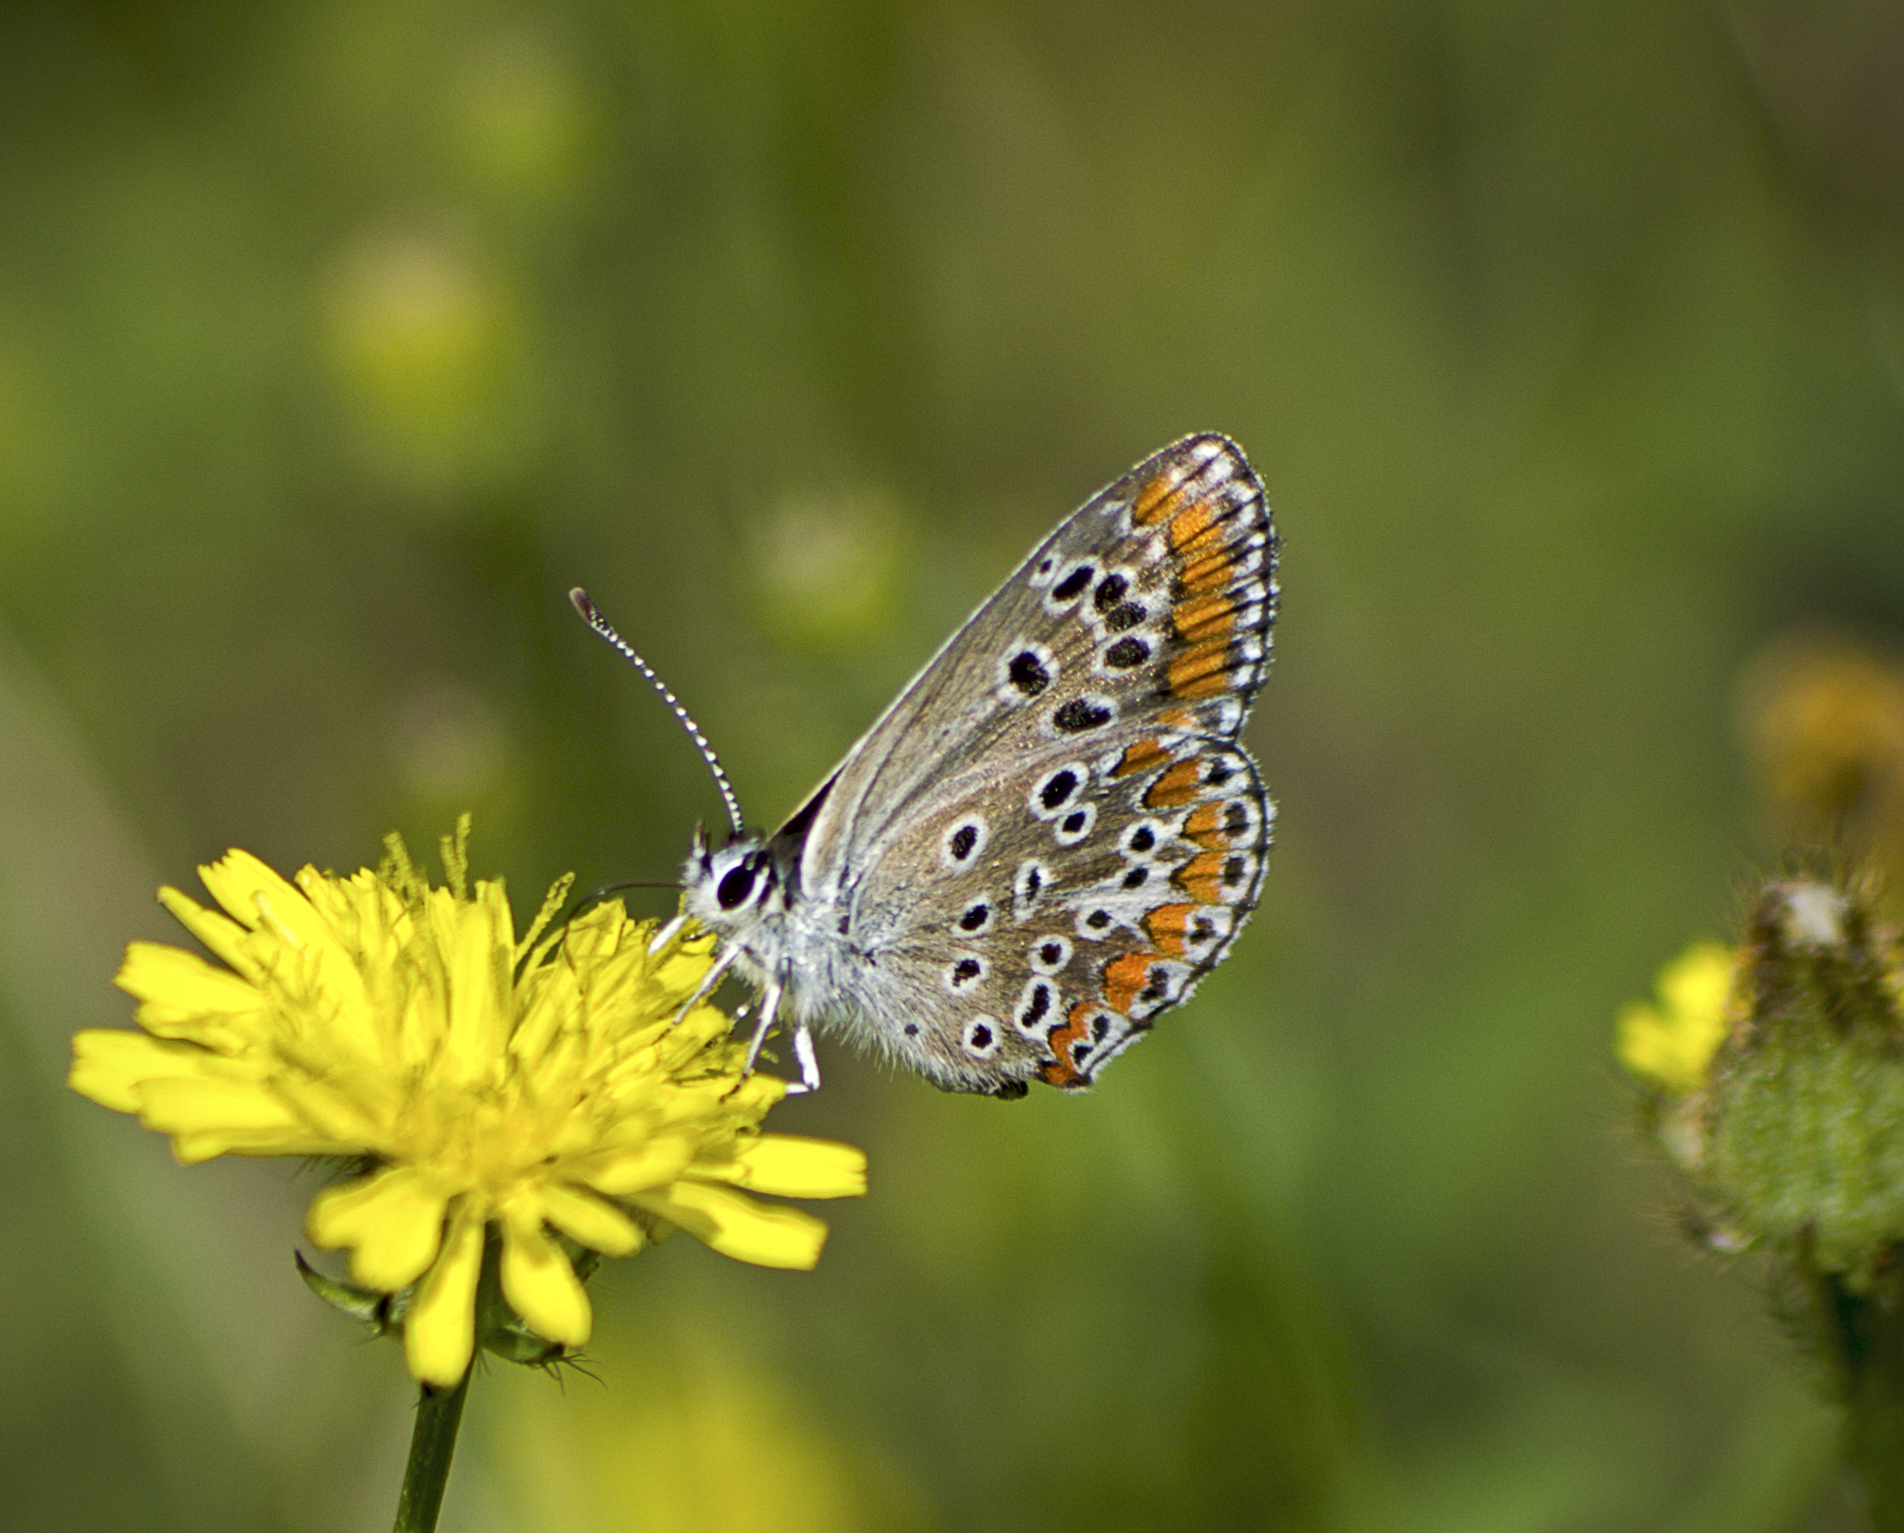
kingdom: Animalia
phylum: Arthropoda
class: Insecta
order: Lepidoptera
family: Lycaenidae
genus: Aricia
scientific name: Aricia agestis
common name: Brown argus
